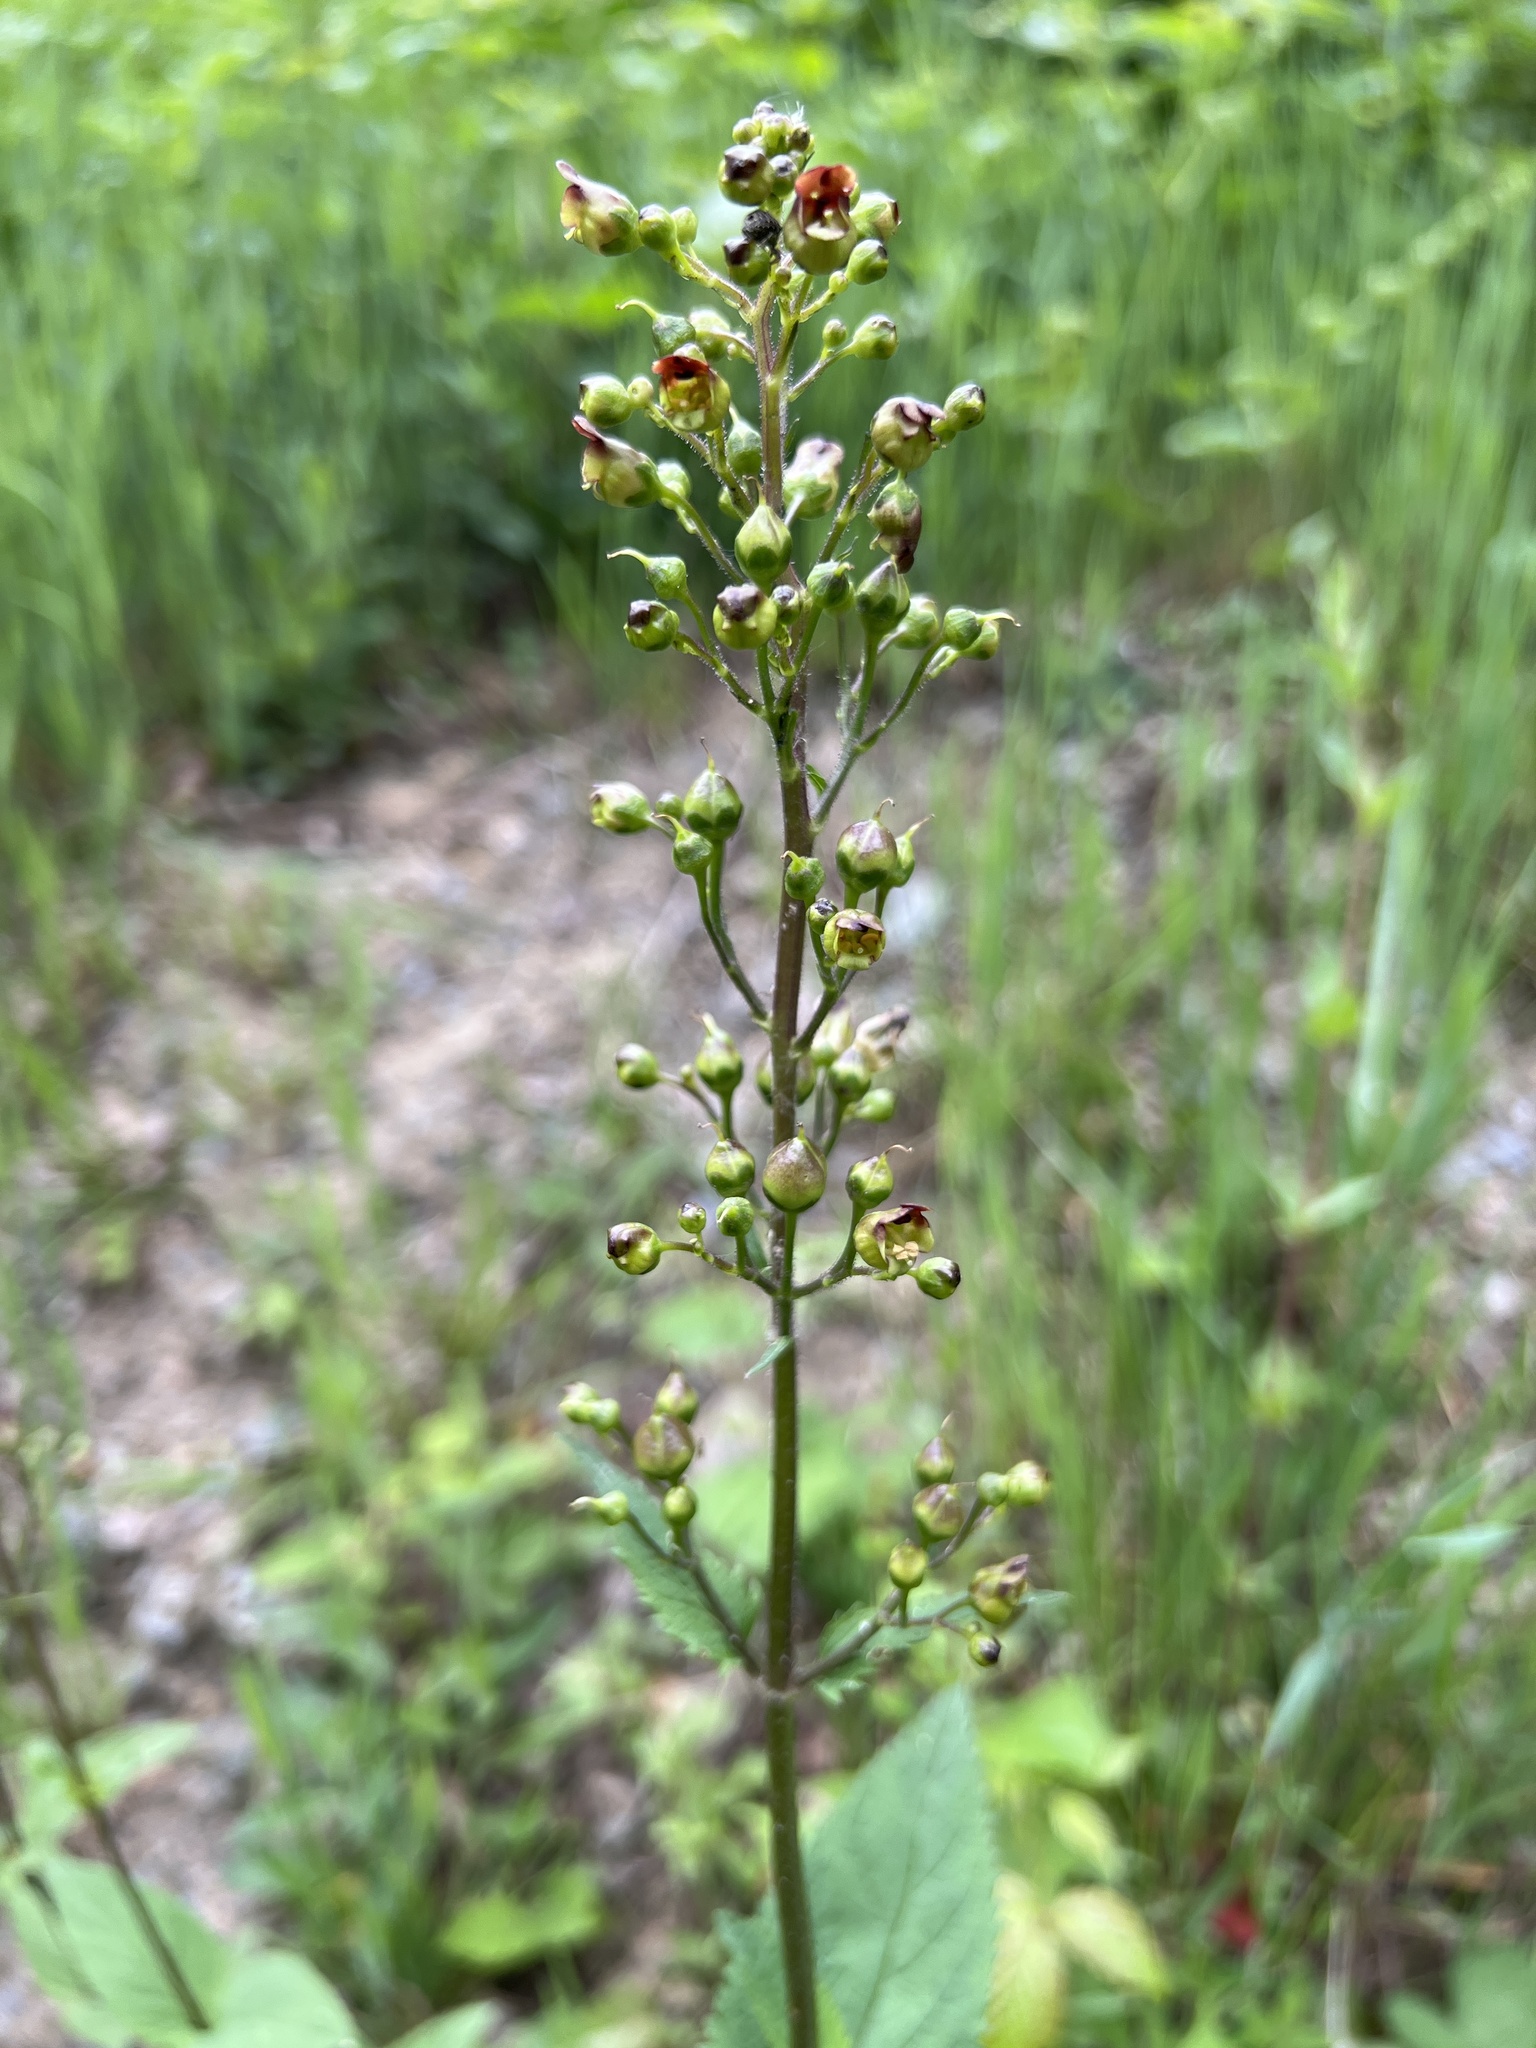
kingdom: Plantae
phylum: Tracheophyta
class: Magnoliopsida
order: Lamiales
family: Scrophulariaceae
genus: Scrophularia
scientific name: Scrophularia nodosa
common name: Common figwort
